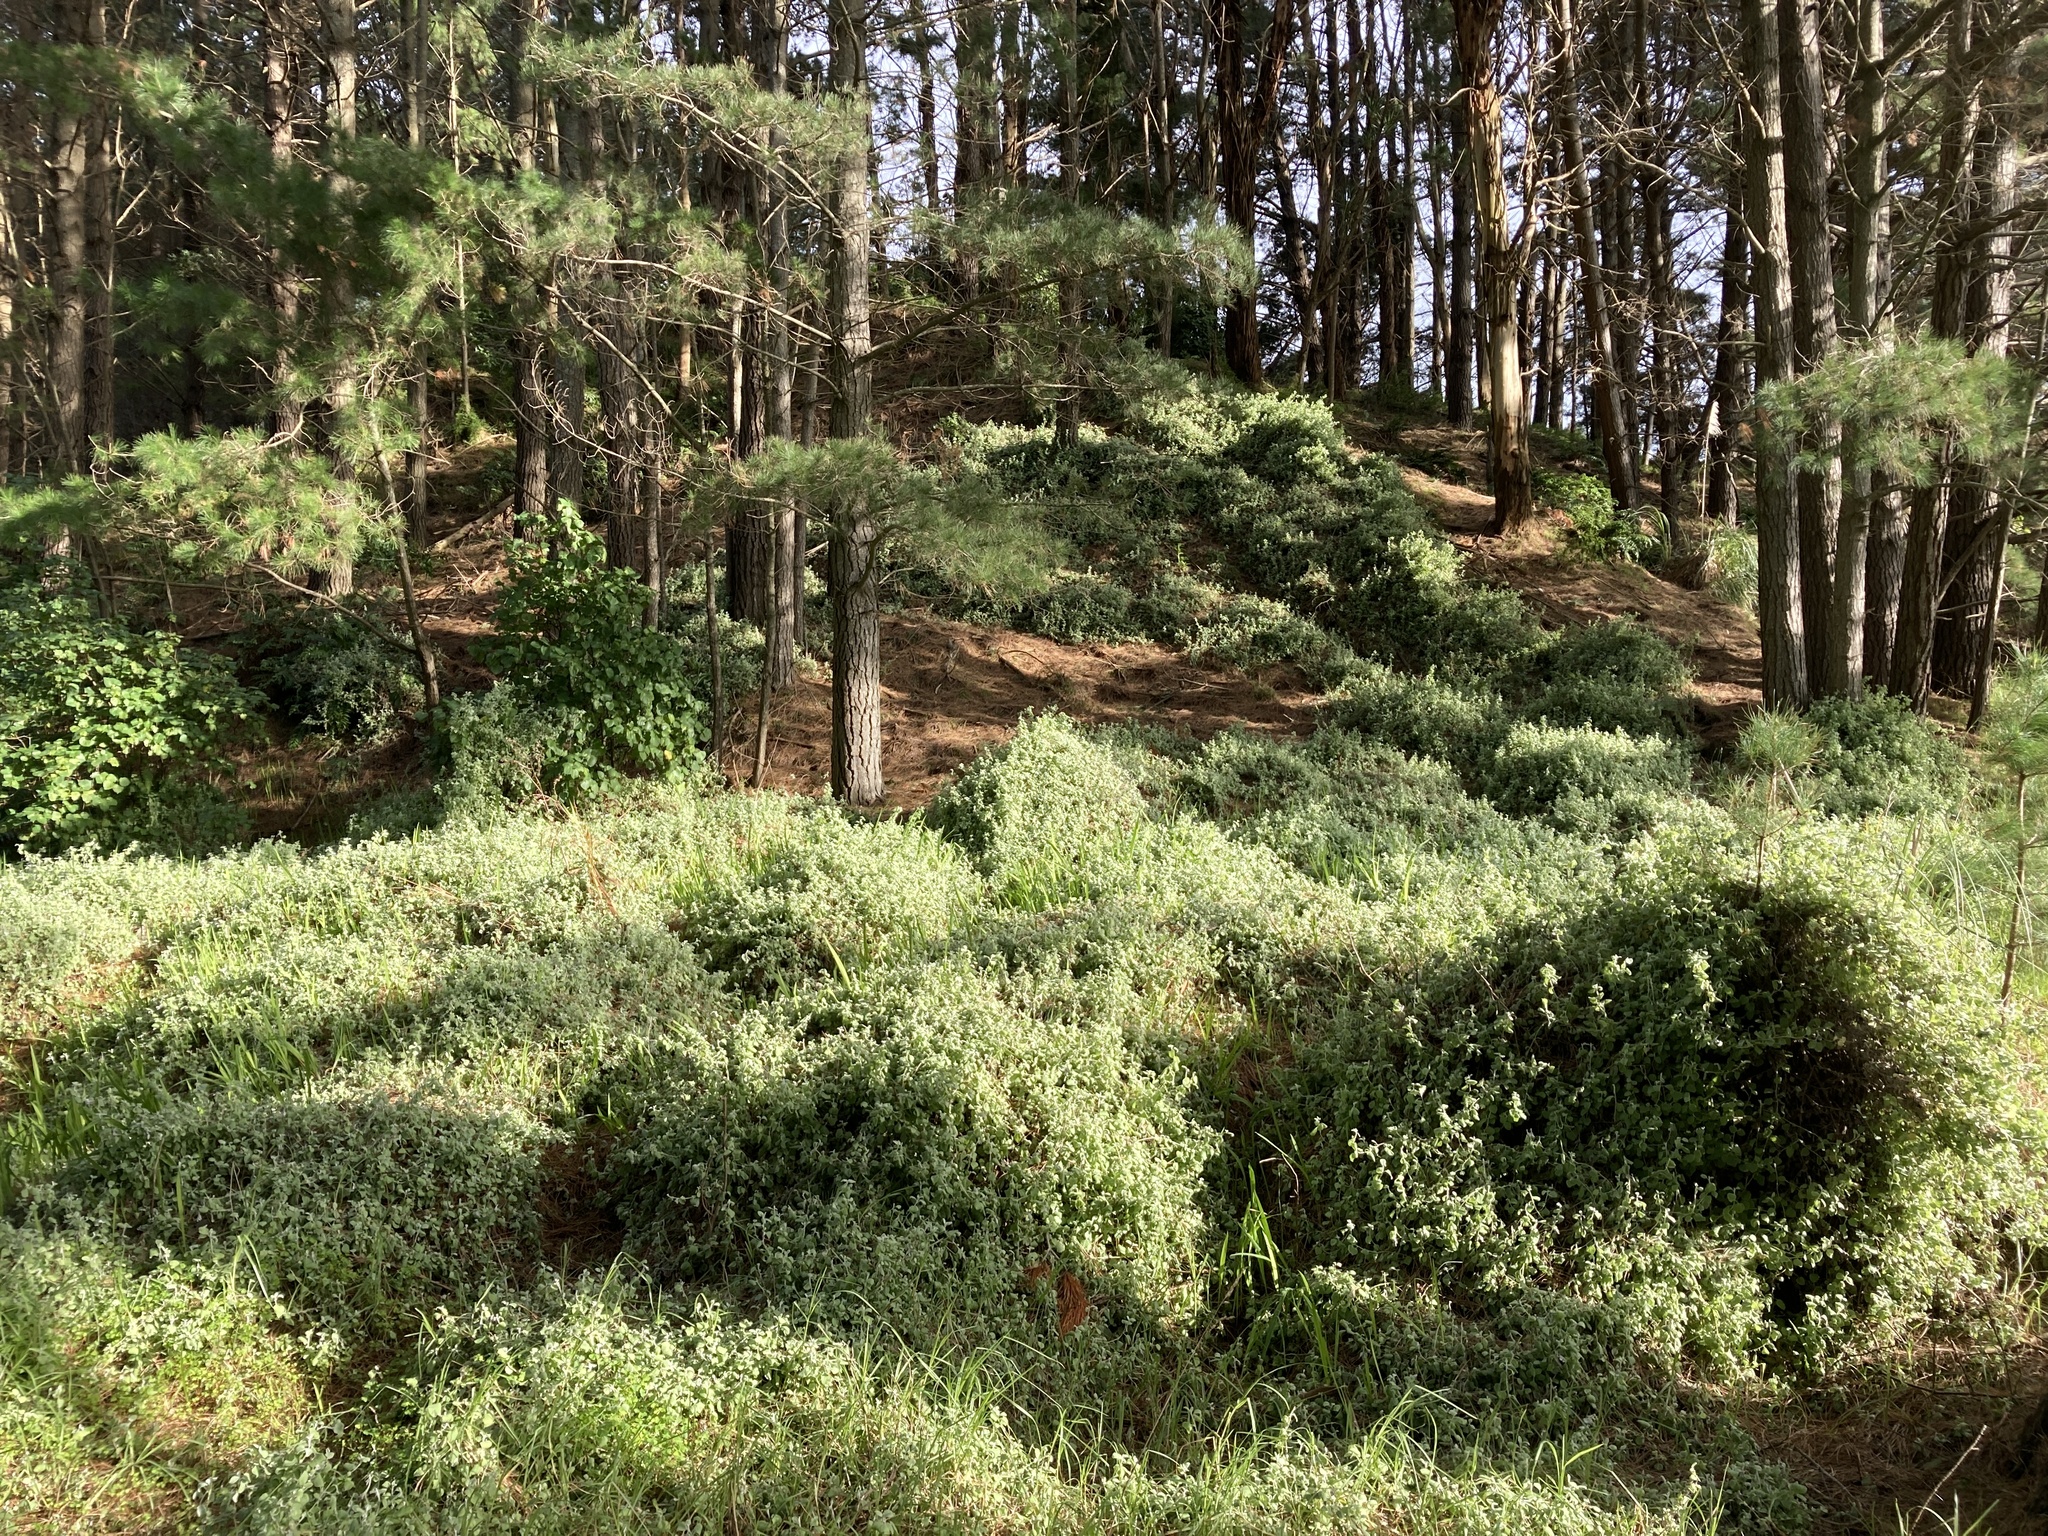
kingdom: Plantae
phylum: Tracheophyta
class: Magnoliopsida
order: Asterales
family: Asteraceae
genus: Helichrysum
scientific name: Helichrysum petiolare
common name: Licorice-plant
